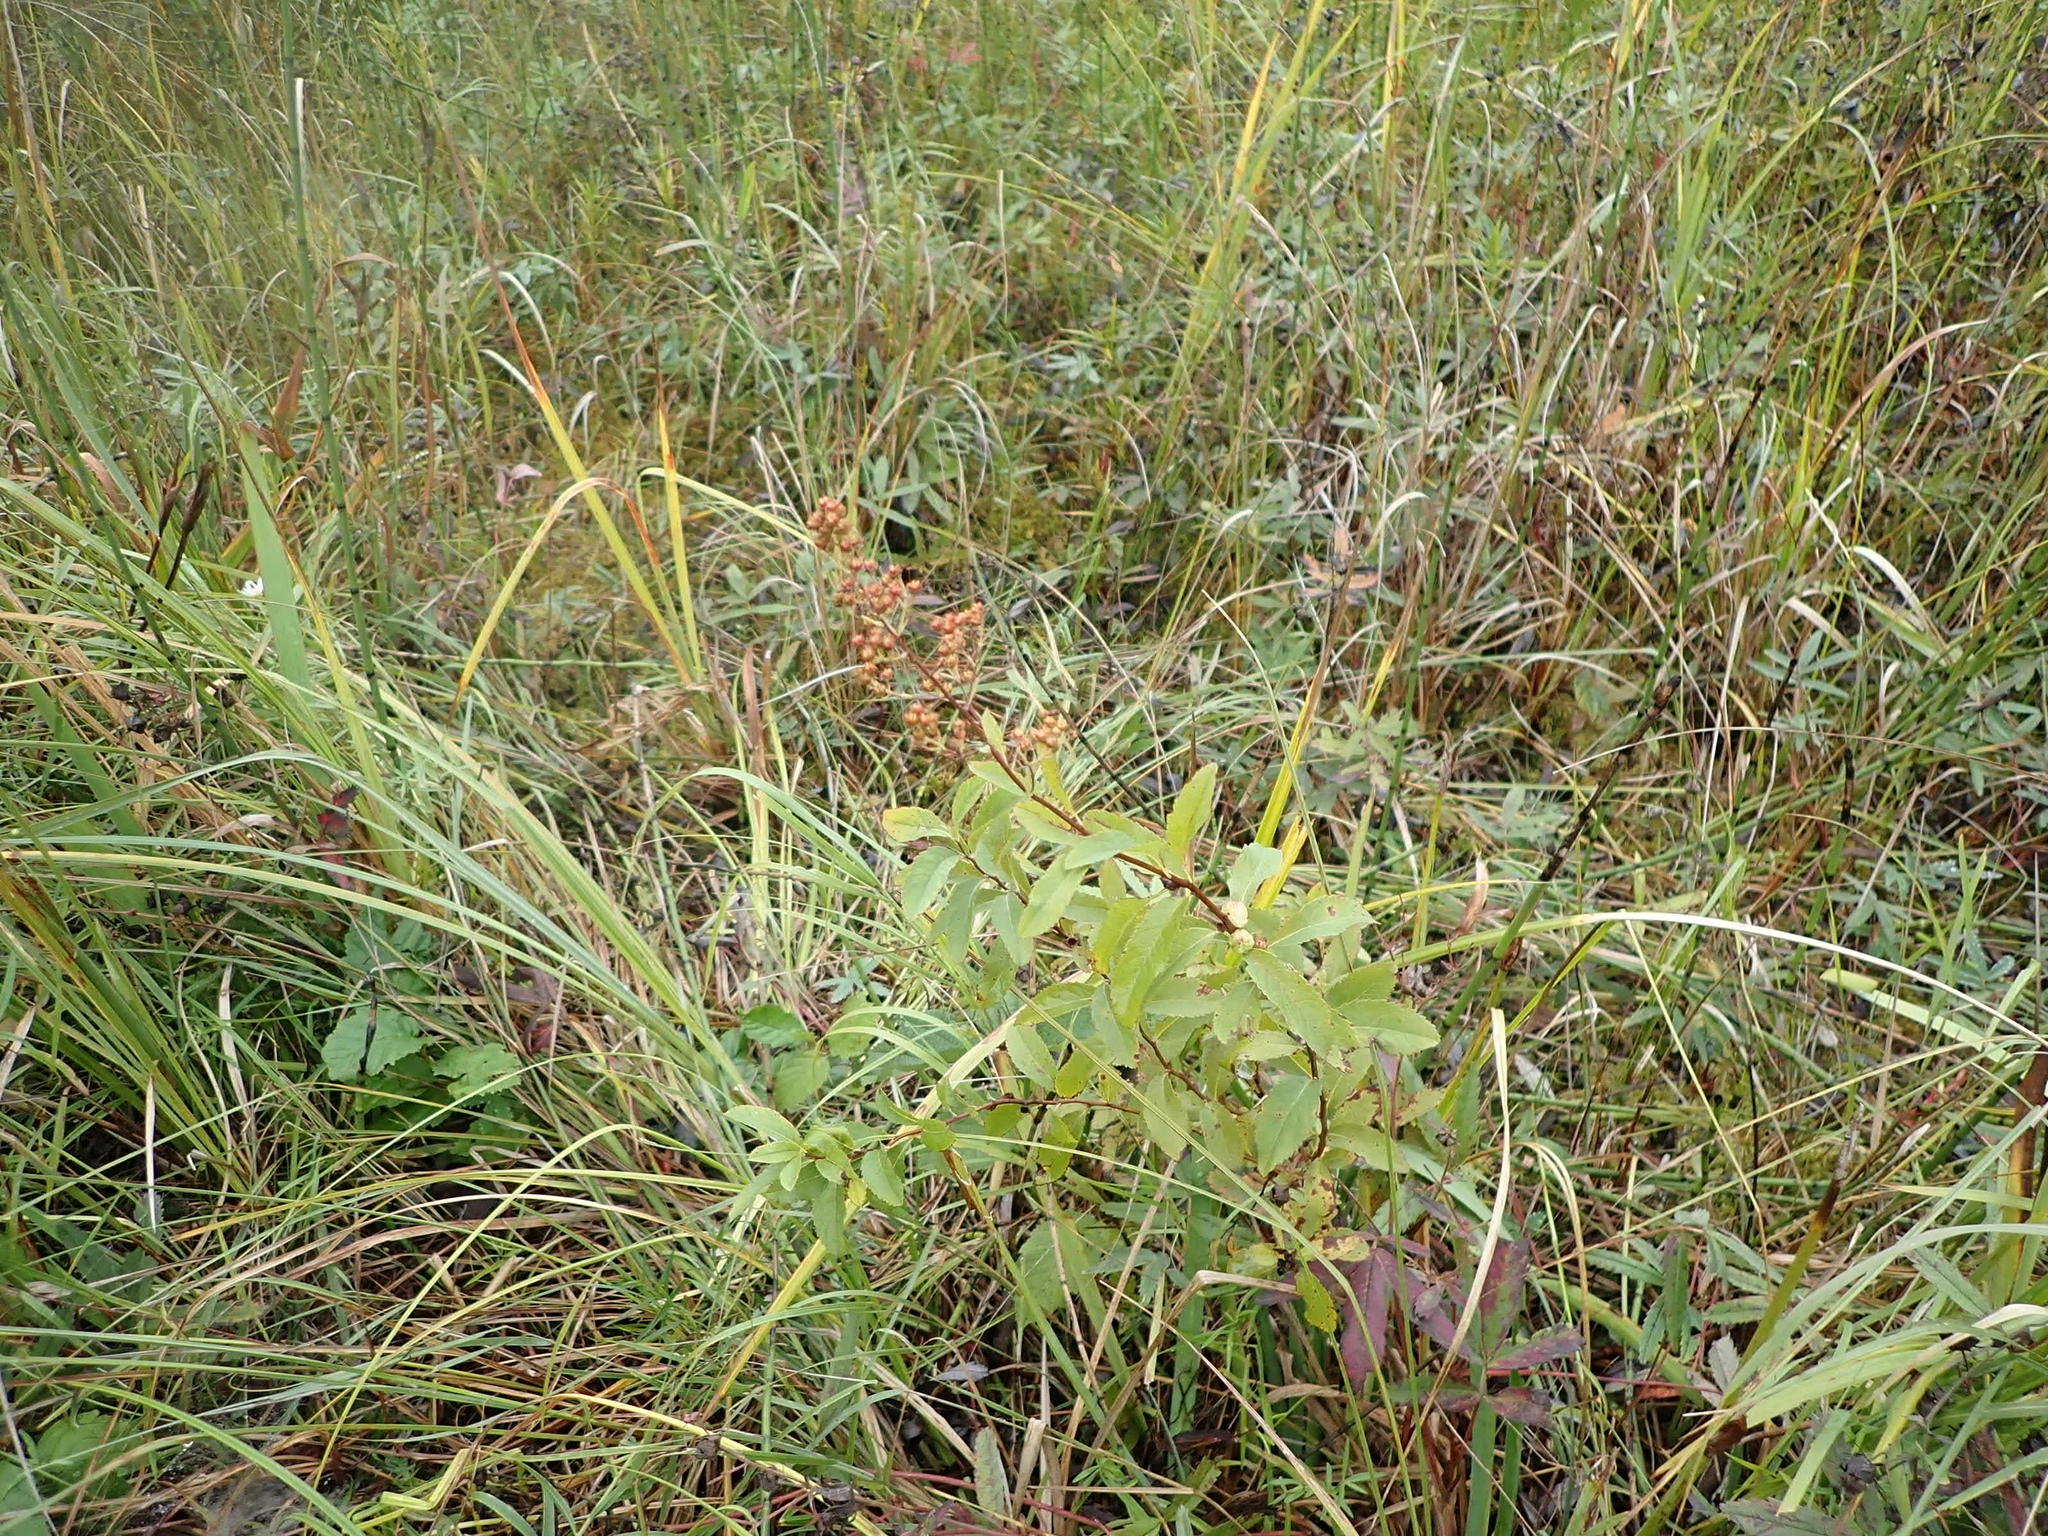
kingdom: Plantae
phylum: Tracheophyta
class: Magnoliopsida
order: Rosales
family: Rosaceae
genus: Spiraea
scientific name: Spiraea alba
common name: Pale bridewort
